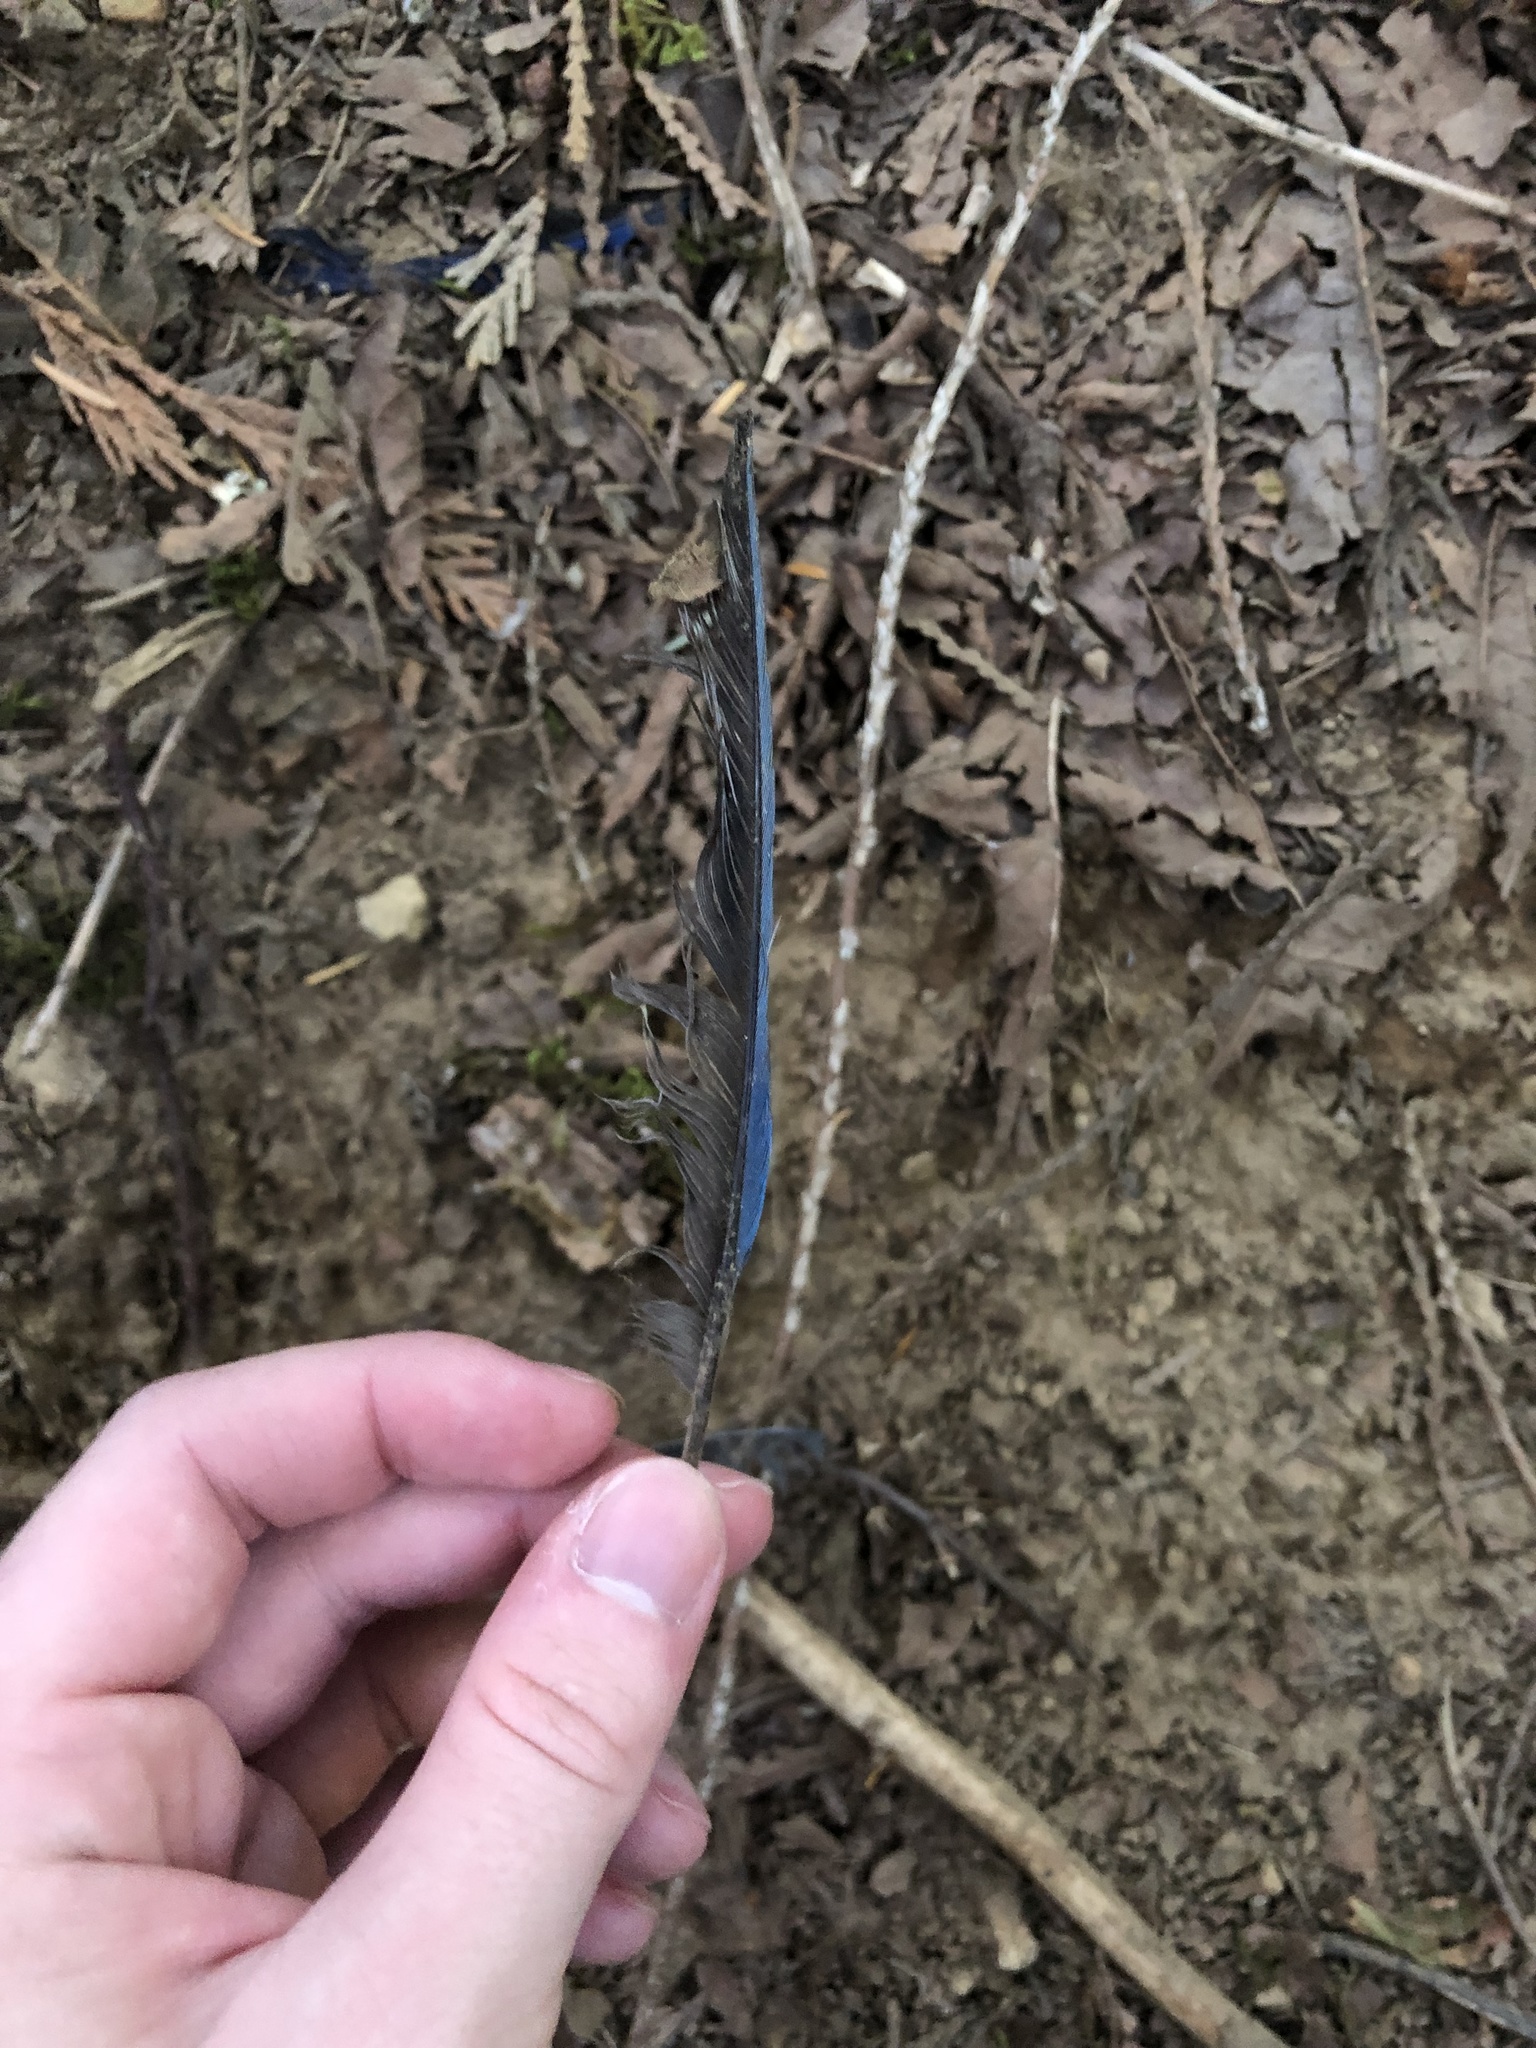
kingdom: Animalia
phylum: Chordata
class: Aves
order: Passeriformes
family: Corvidae
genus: Cyanocitta
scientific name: Cyanocitta stelleri
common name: Steller's jay
